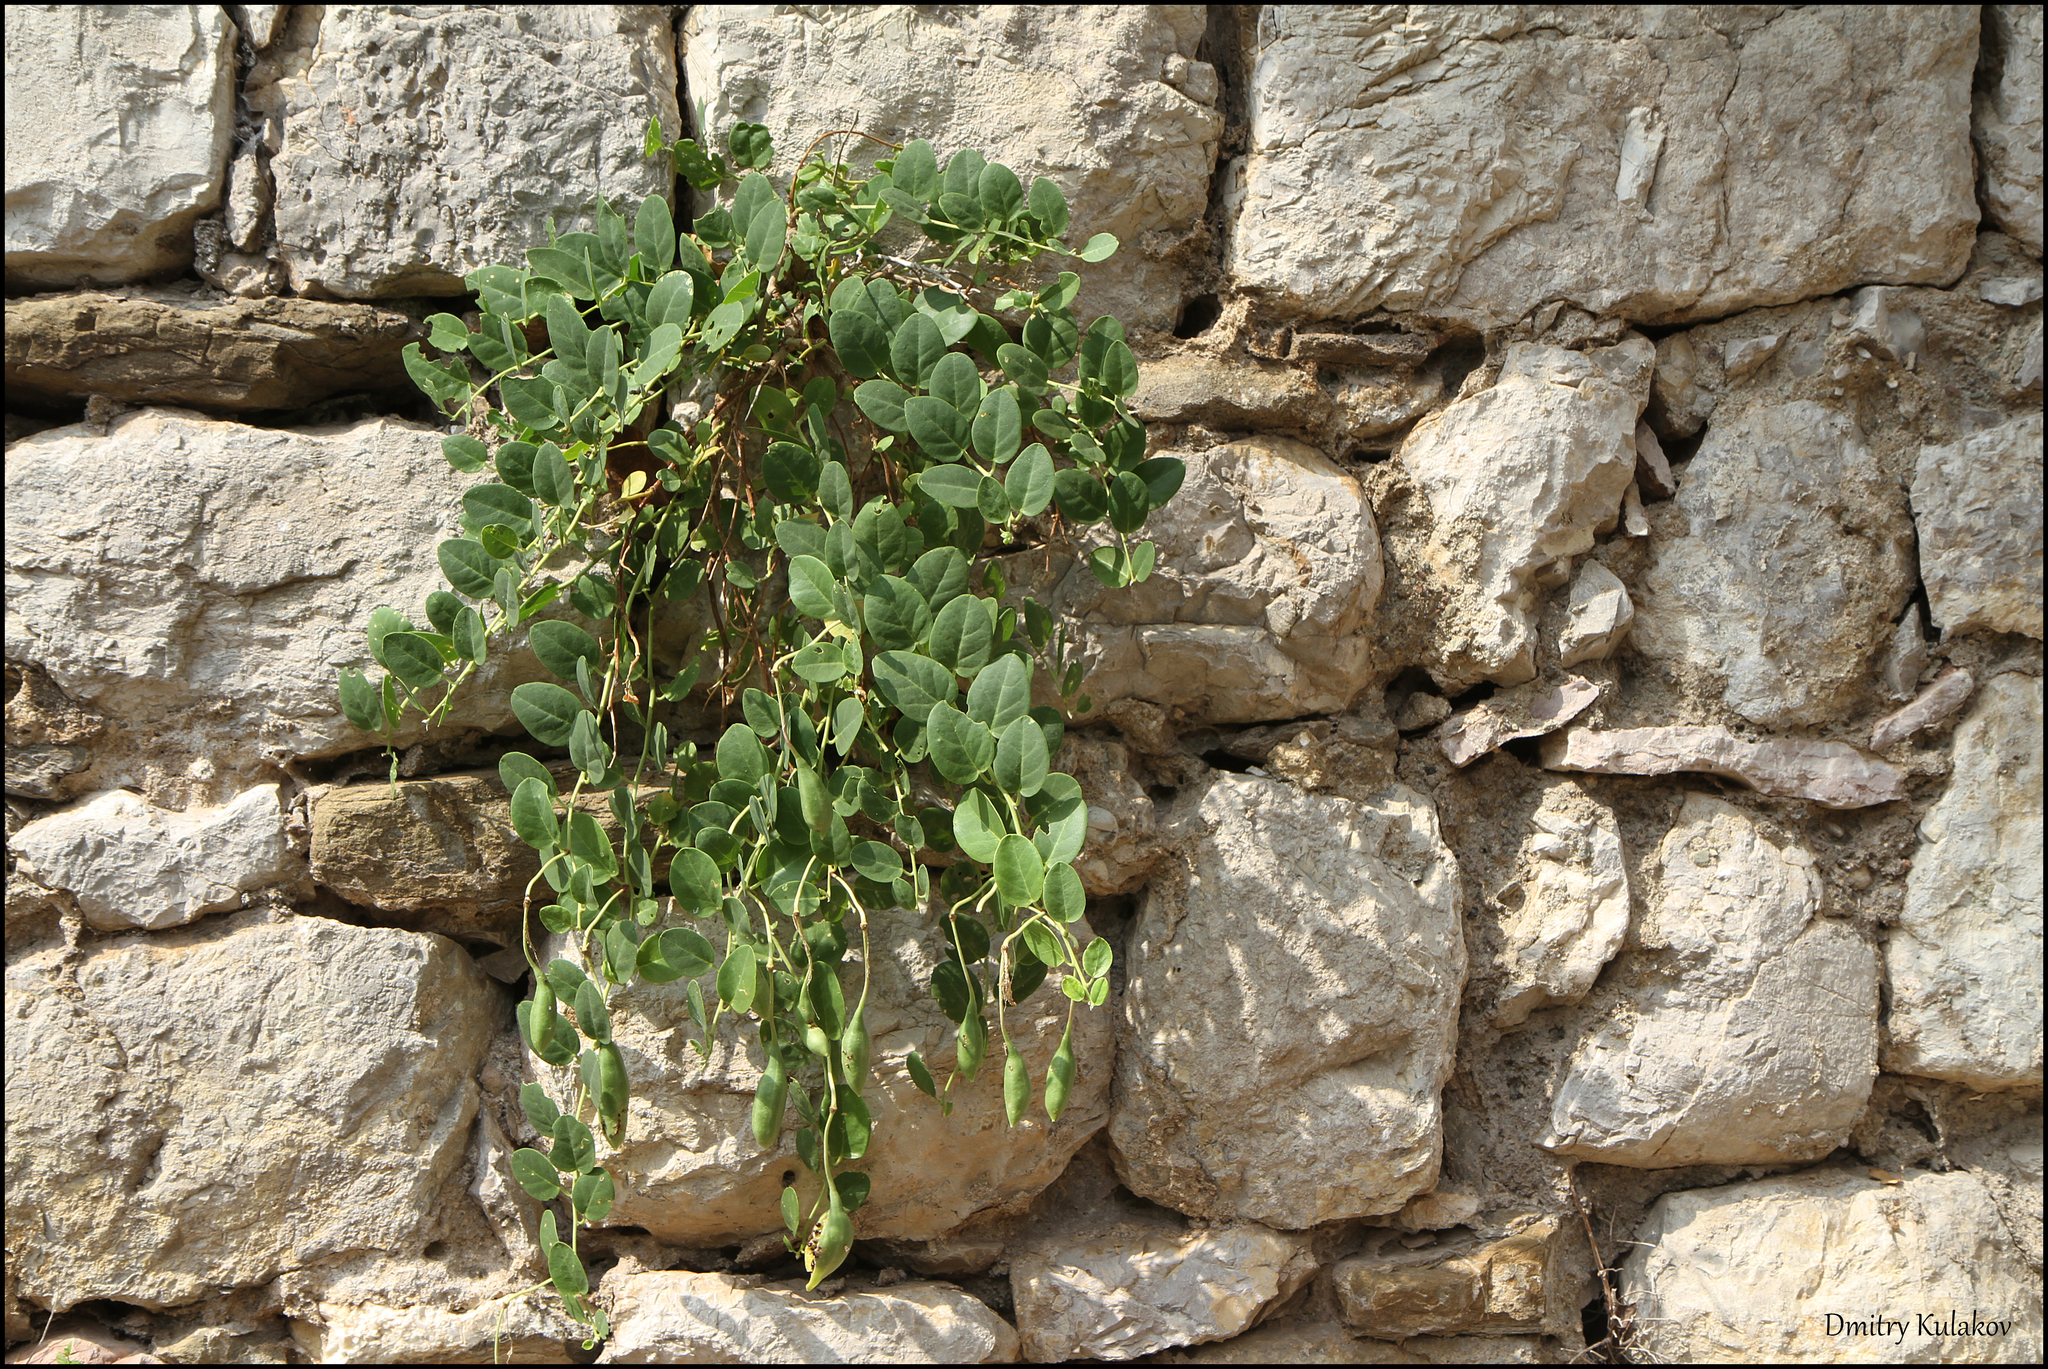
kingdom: Plantae
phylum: Tracheophyta
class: Magnoliopsida
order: Brassicales
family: Capparaceae
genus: Capparis
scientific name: Capparis orientalis
